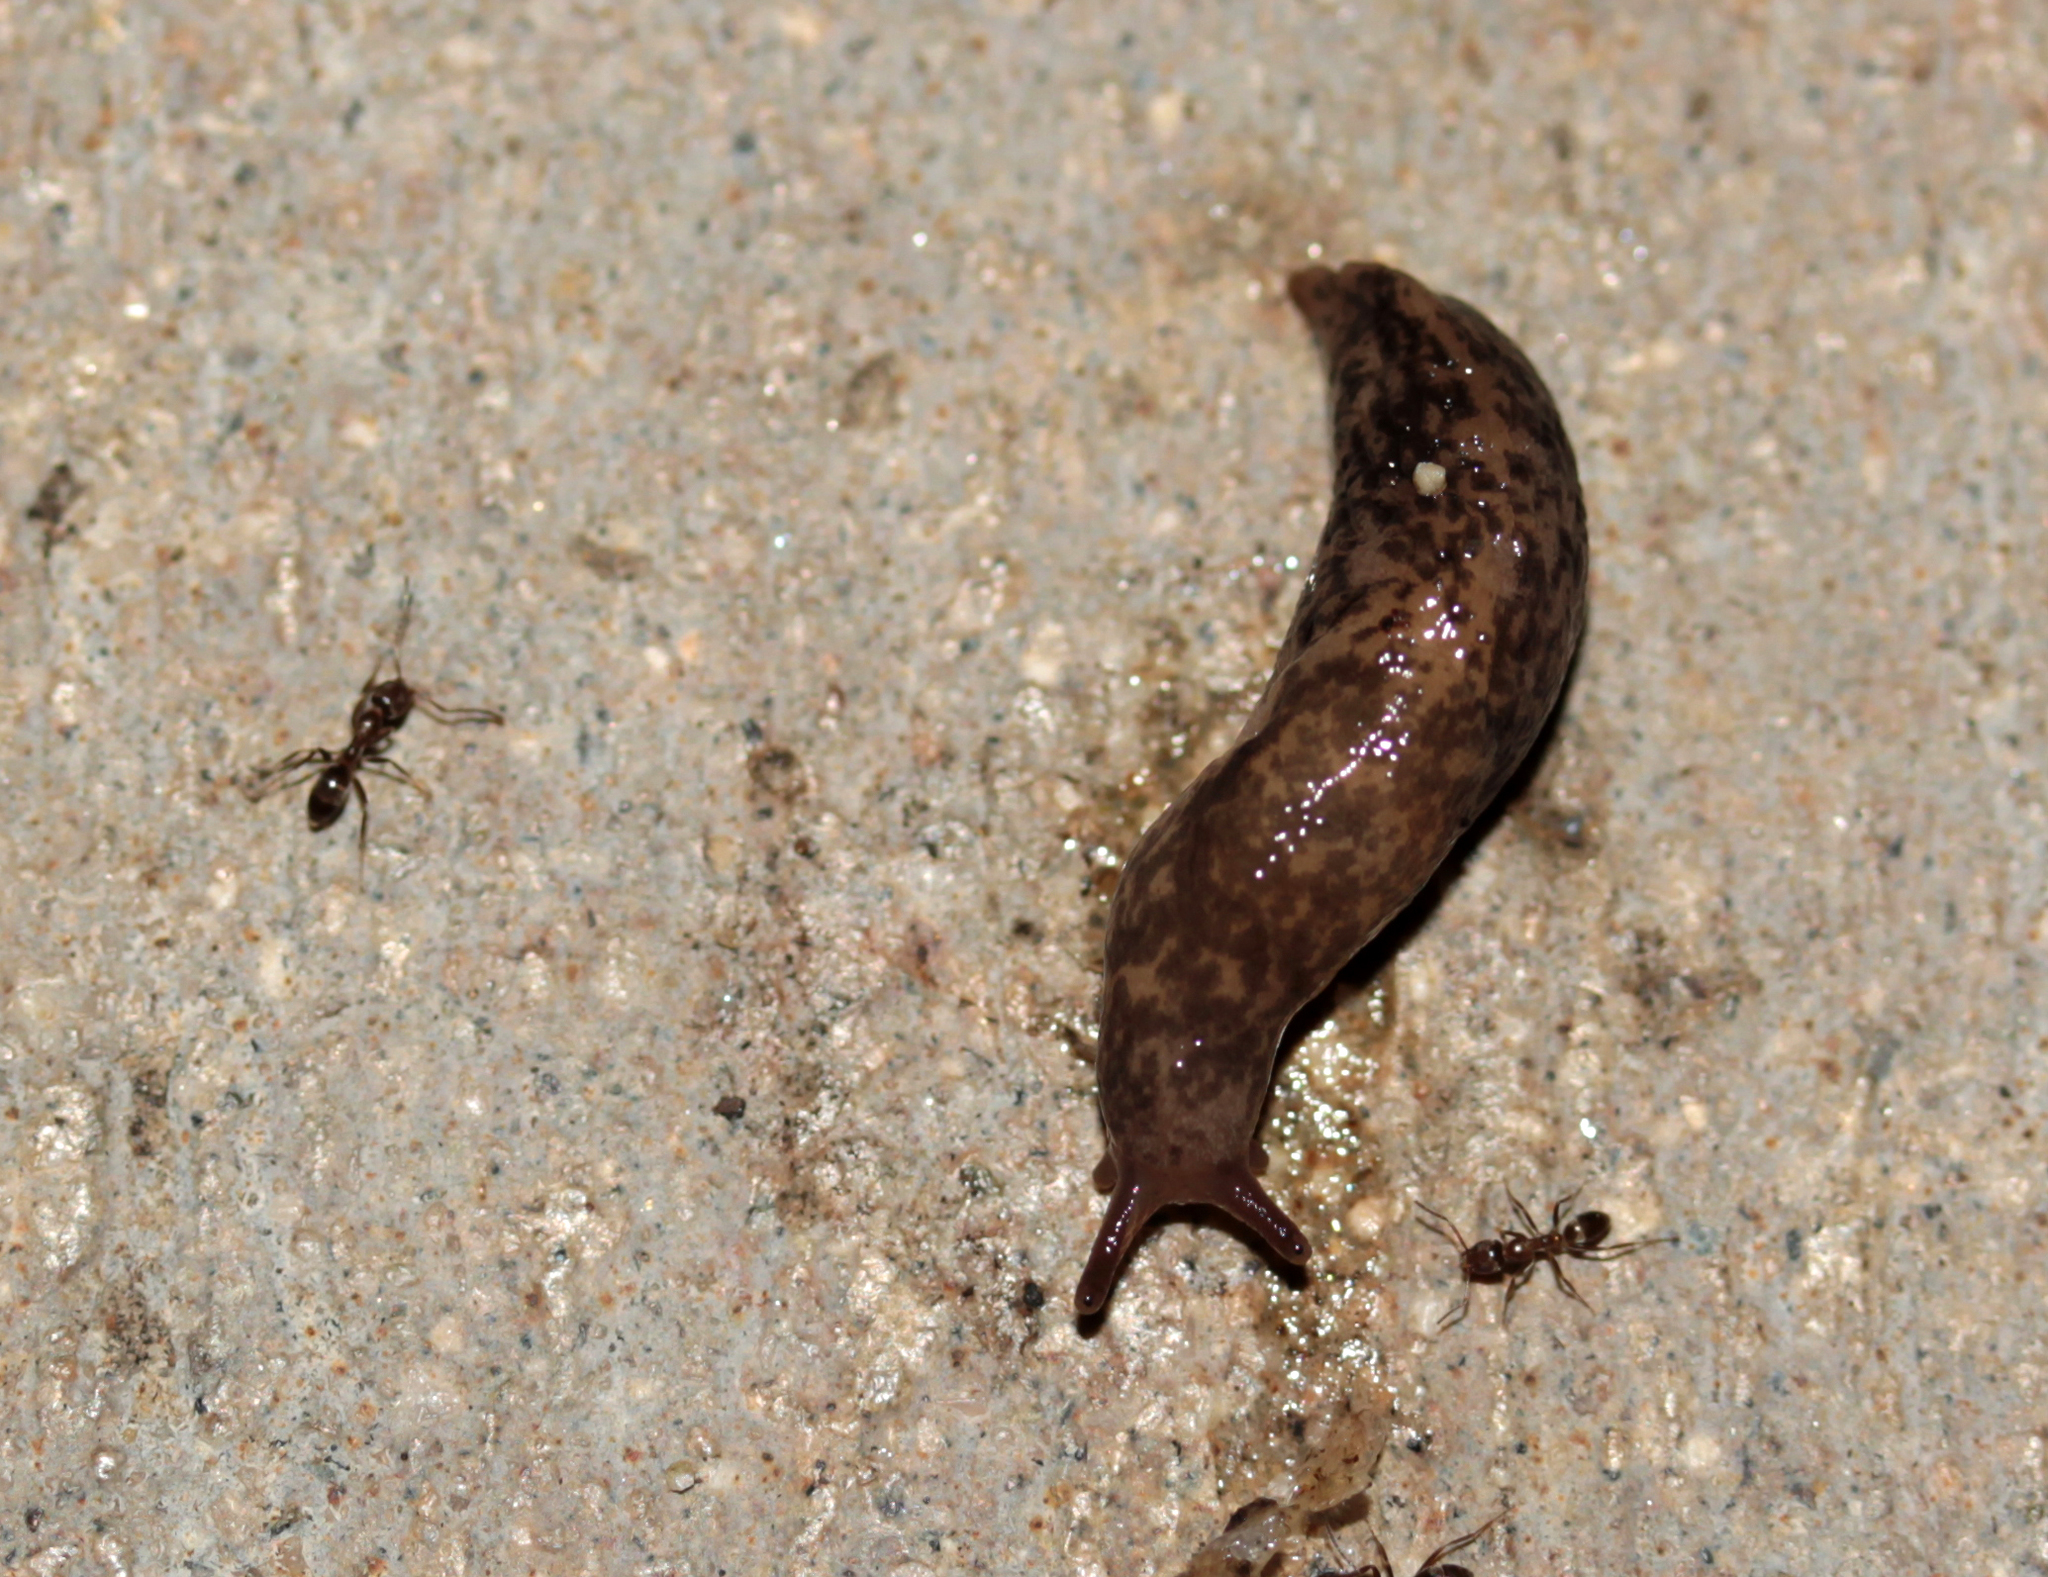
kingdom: Animalia
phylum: Mollusca
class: Gastropoda
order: Stylommatophora
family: Agriolimacidae
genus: Deroceras
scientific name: Deroceras reticulatum
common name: Gray field slug
